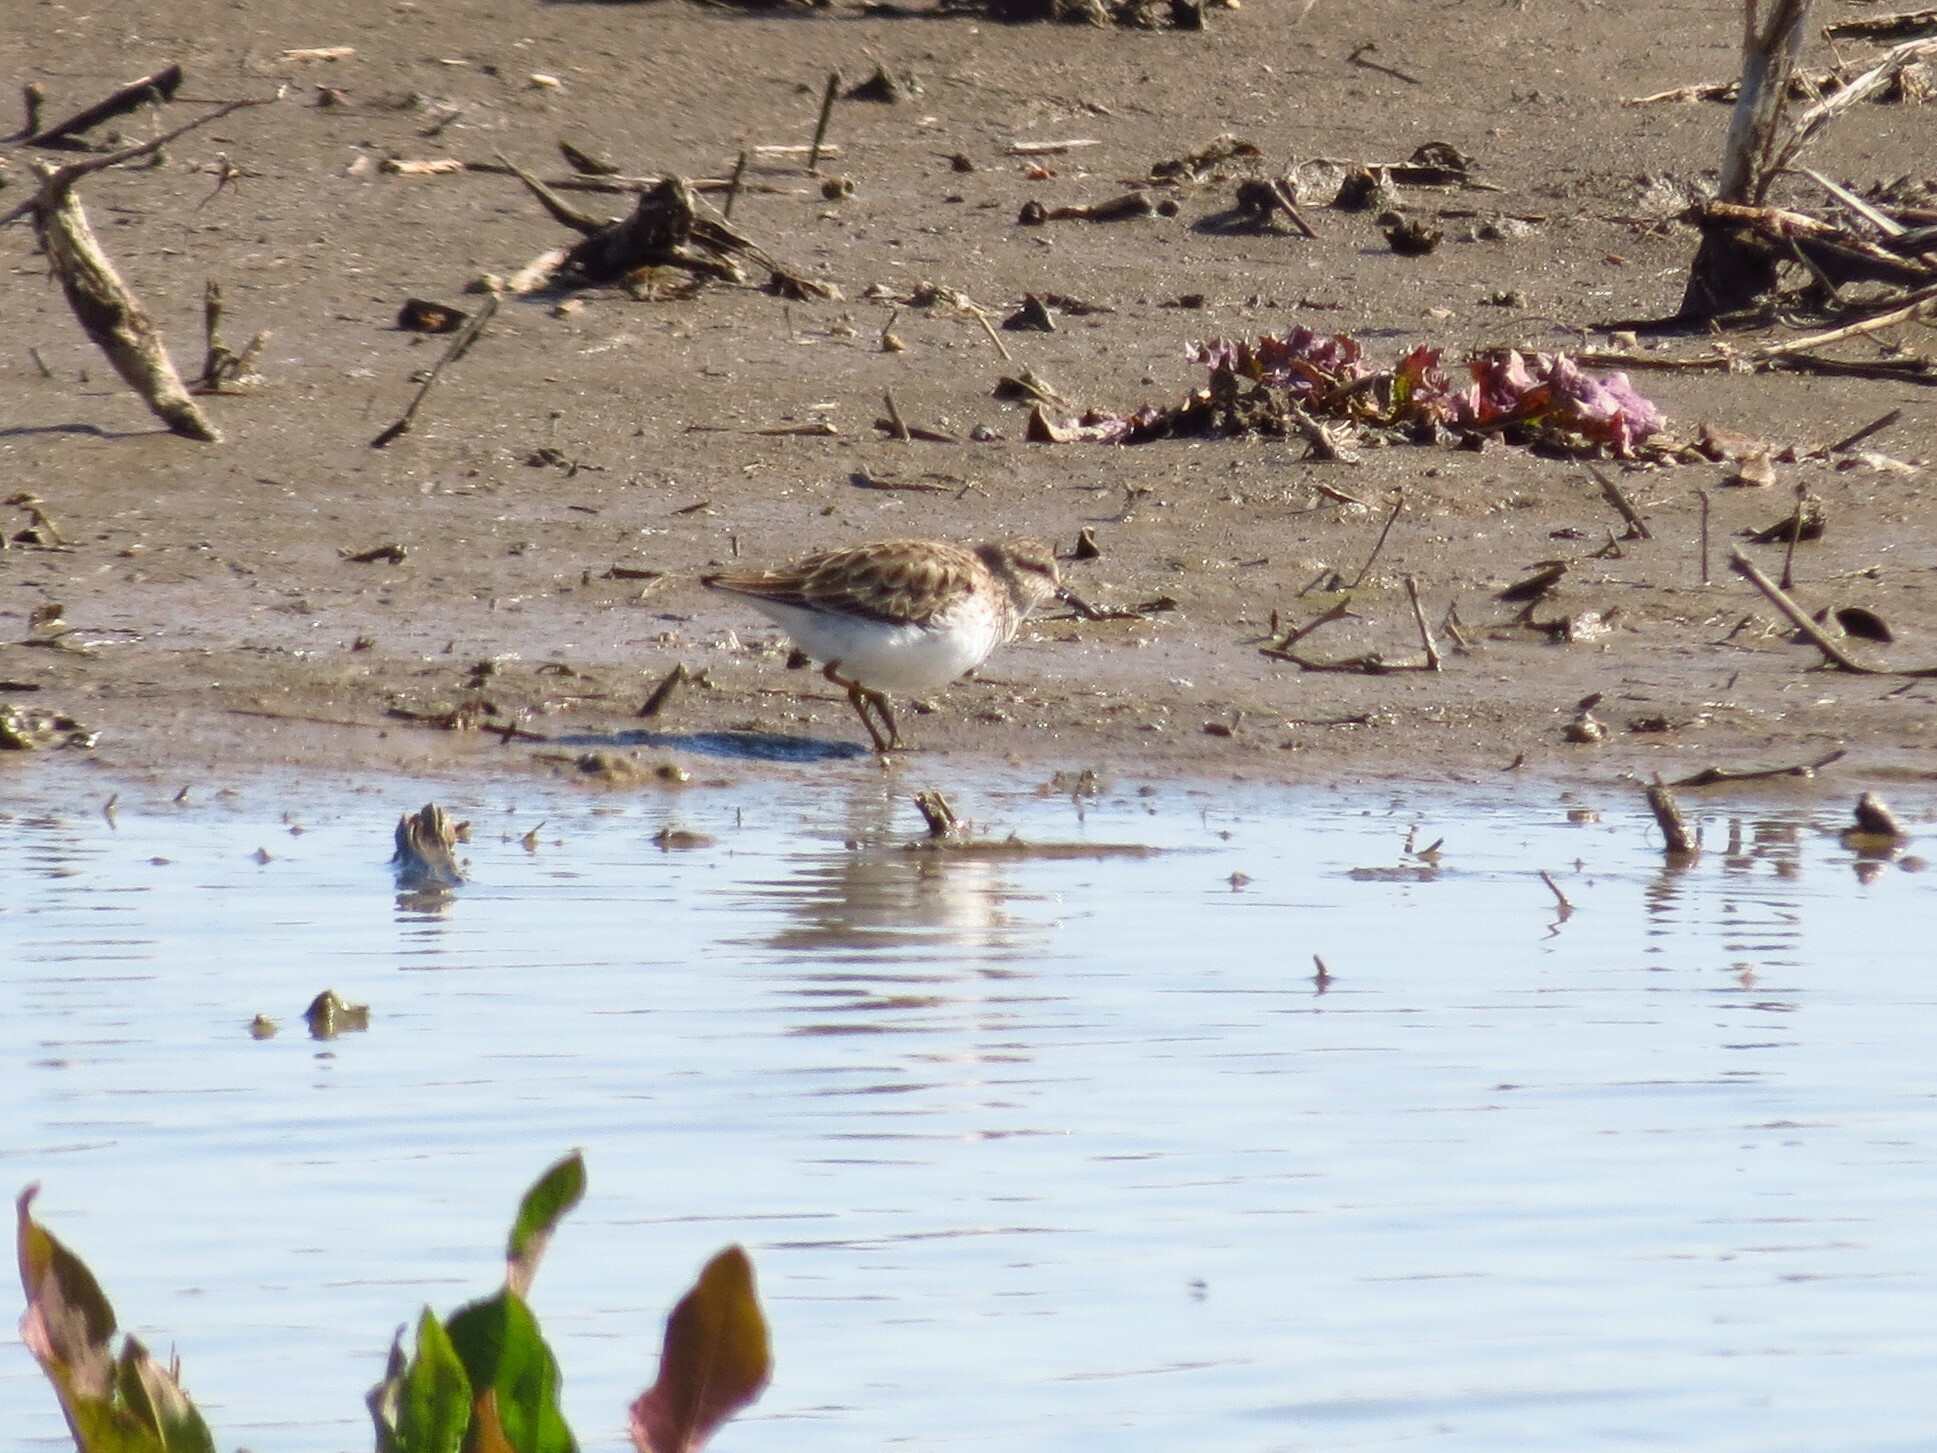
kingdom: Animalia
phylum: Chordata
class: Aves
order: Charadriiformes
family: Scolopacidae
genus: Calidris
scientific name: Calidris minutilla
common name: Least sandpiper
